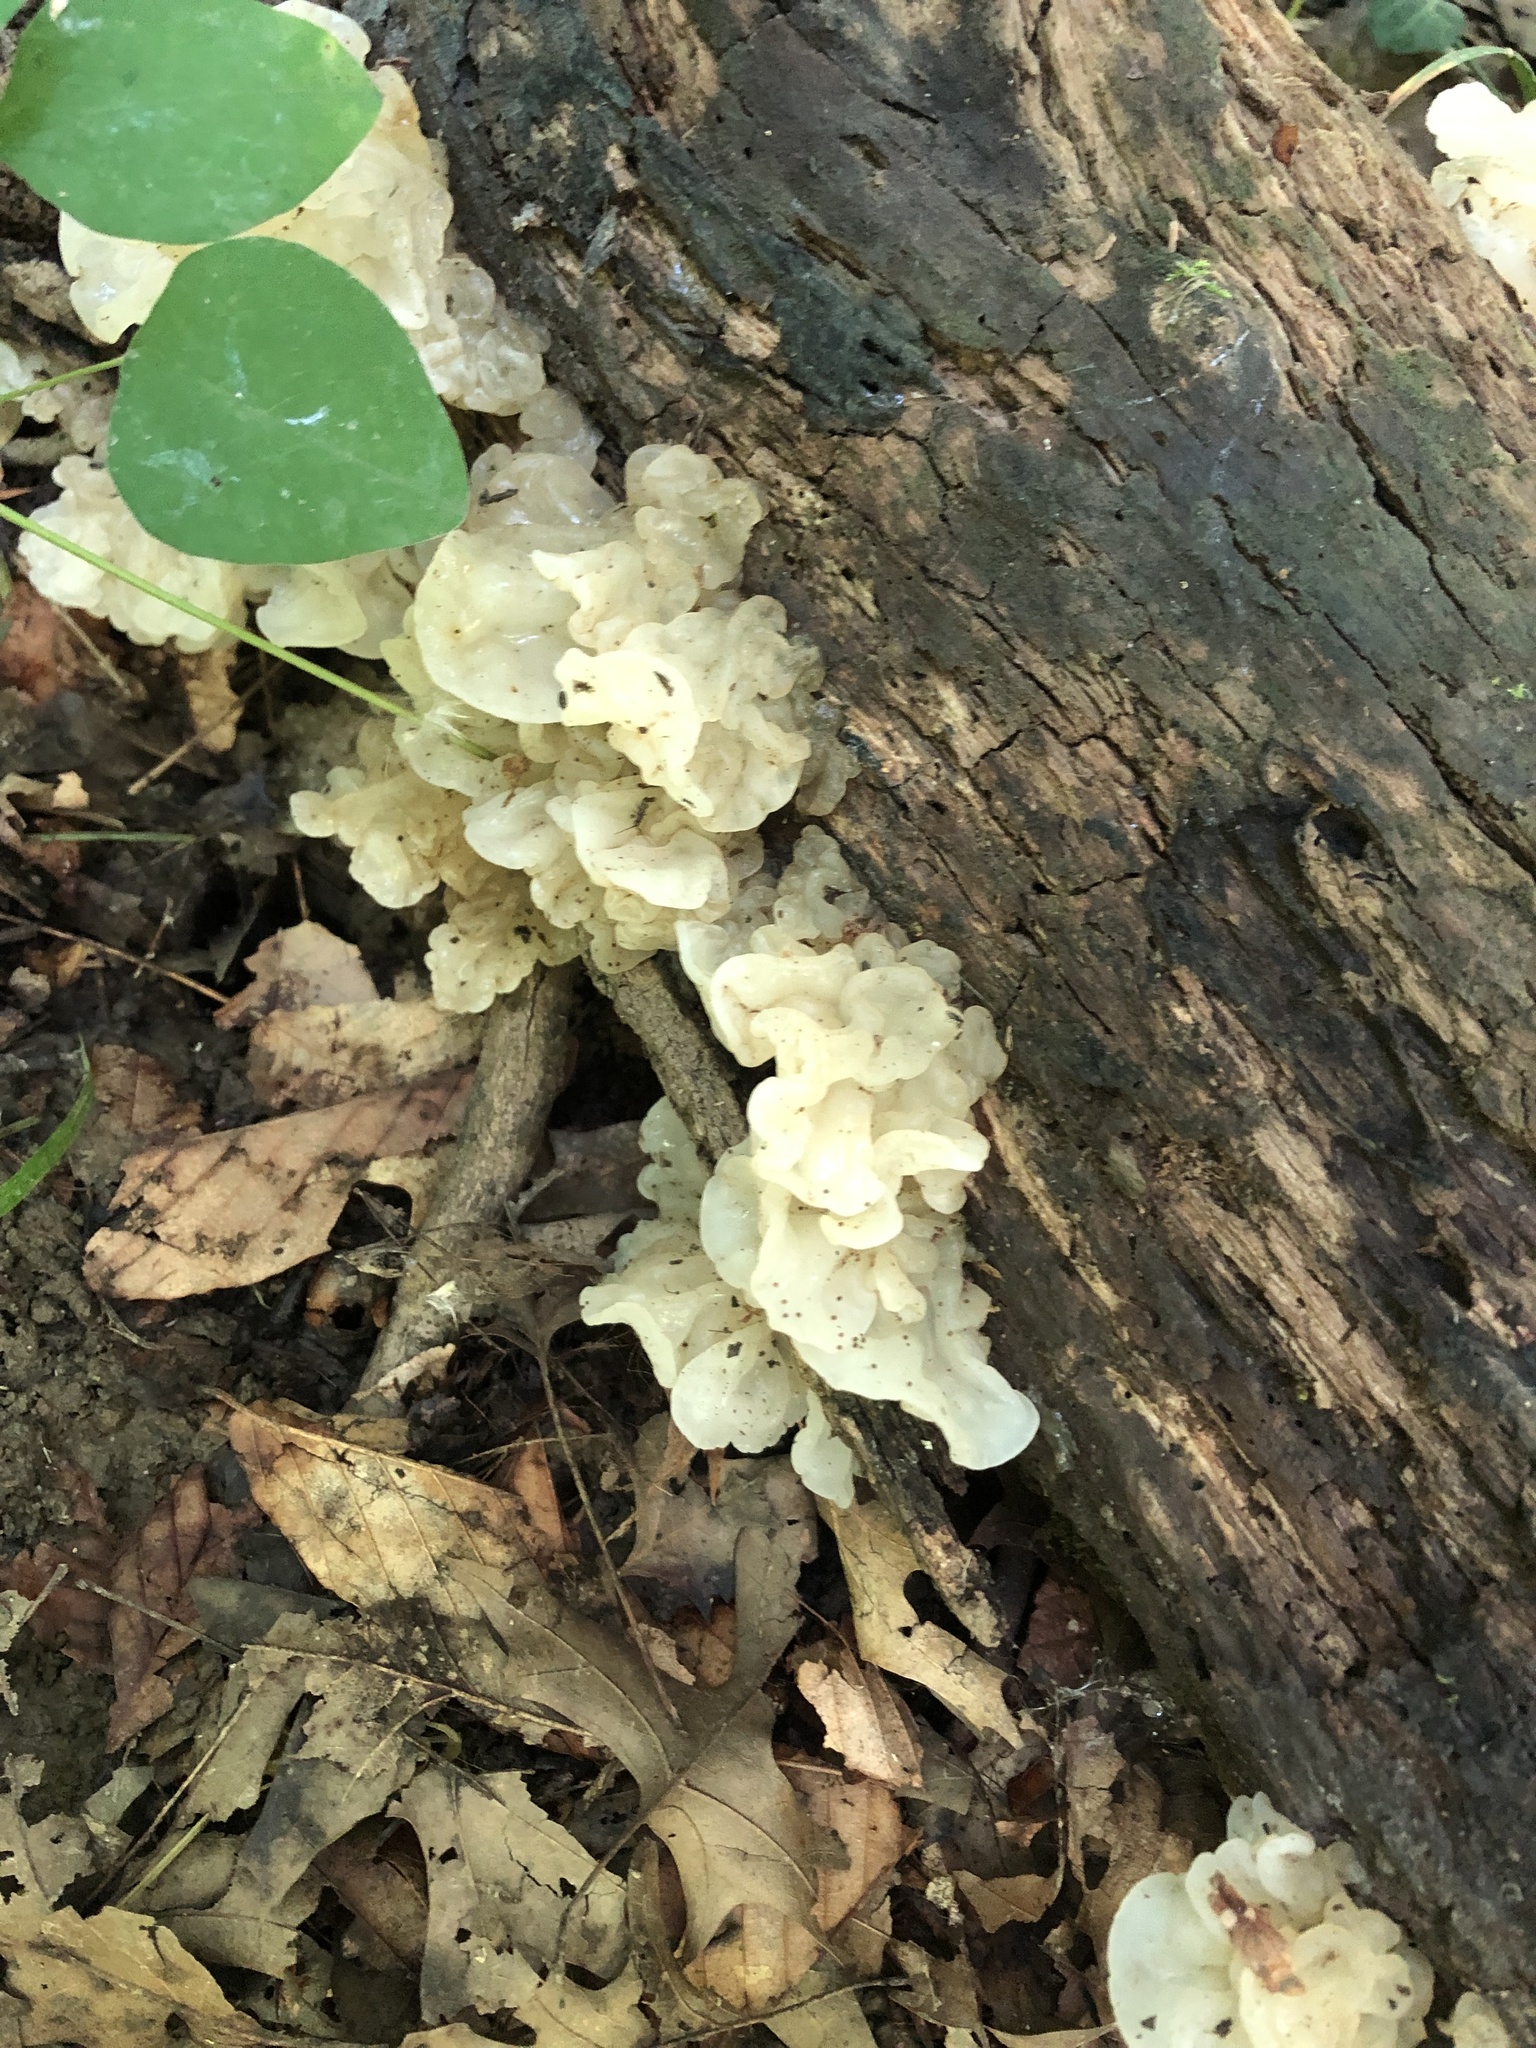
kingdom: Fungi
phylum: Basidiomycota
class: Agaricomycetes
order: Auriculariales
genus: Ductifera
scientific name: Ductifera pululahuana
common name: White jelly fungus
